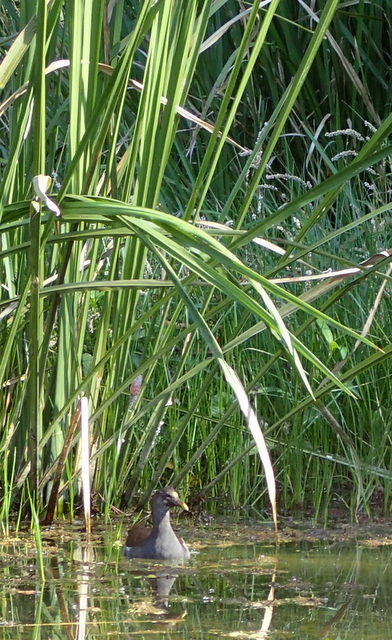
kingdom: Animalia
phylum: Chordata
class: Aves
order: Gruiformes
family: Rallidae
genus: Gallinula
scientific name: Gallinula chloropus
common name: Common moorhen
